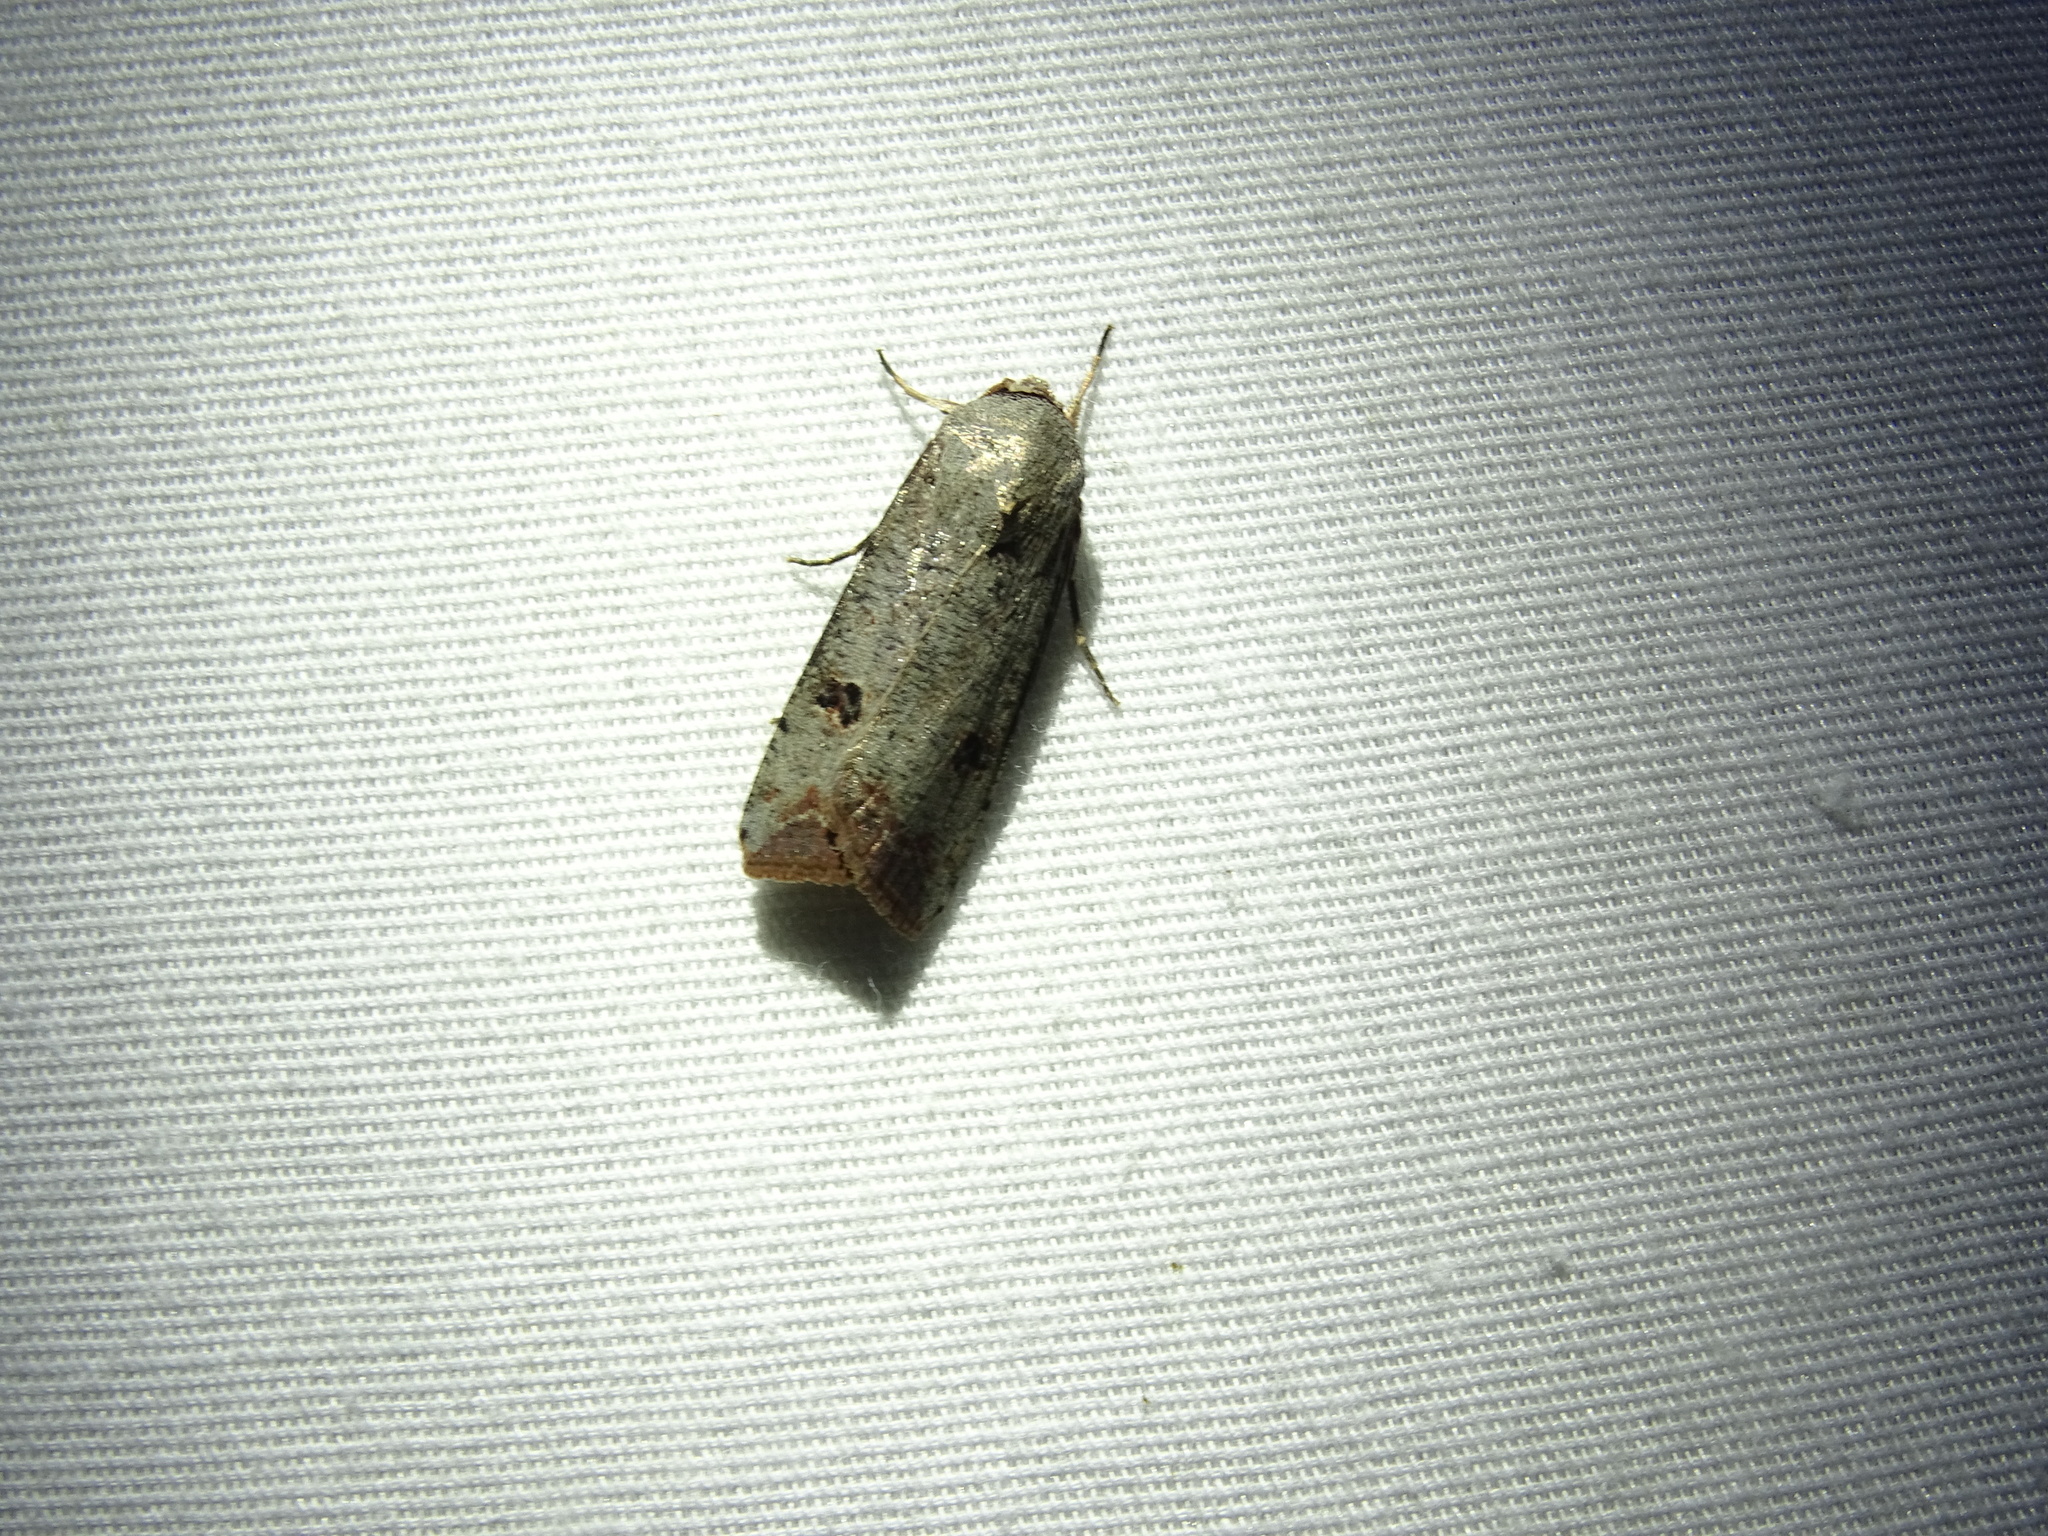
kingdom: Animalia
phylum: Arthropoda
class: Insecta
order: Lepidoptera
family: Noctuidae
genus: Anicla
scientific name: Anicla infecta
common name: Green cutworm
